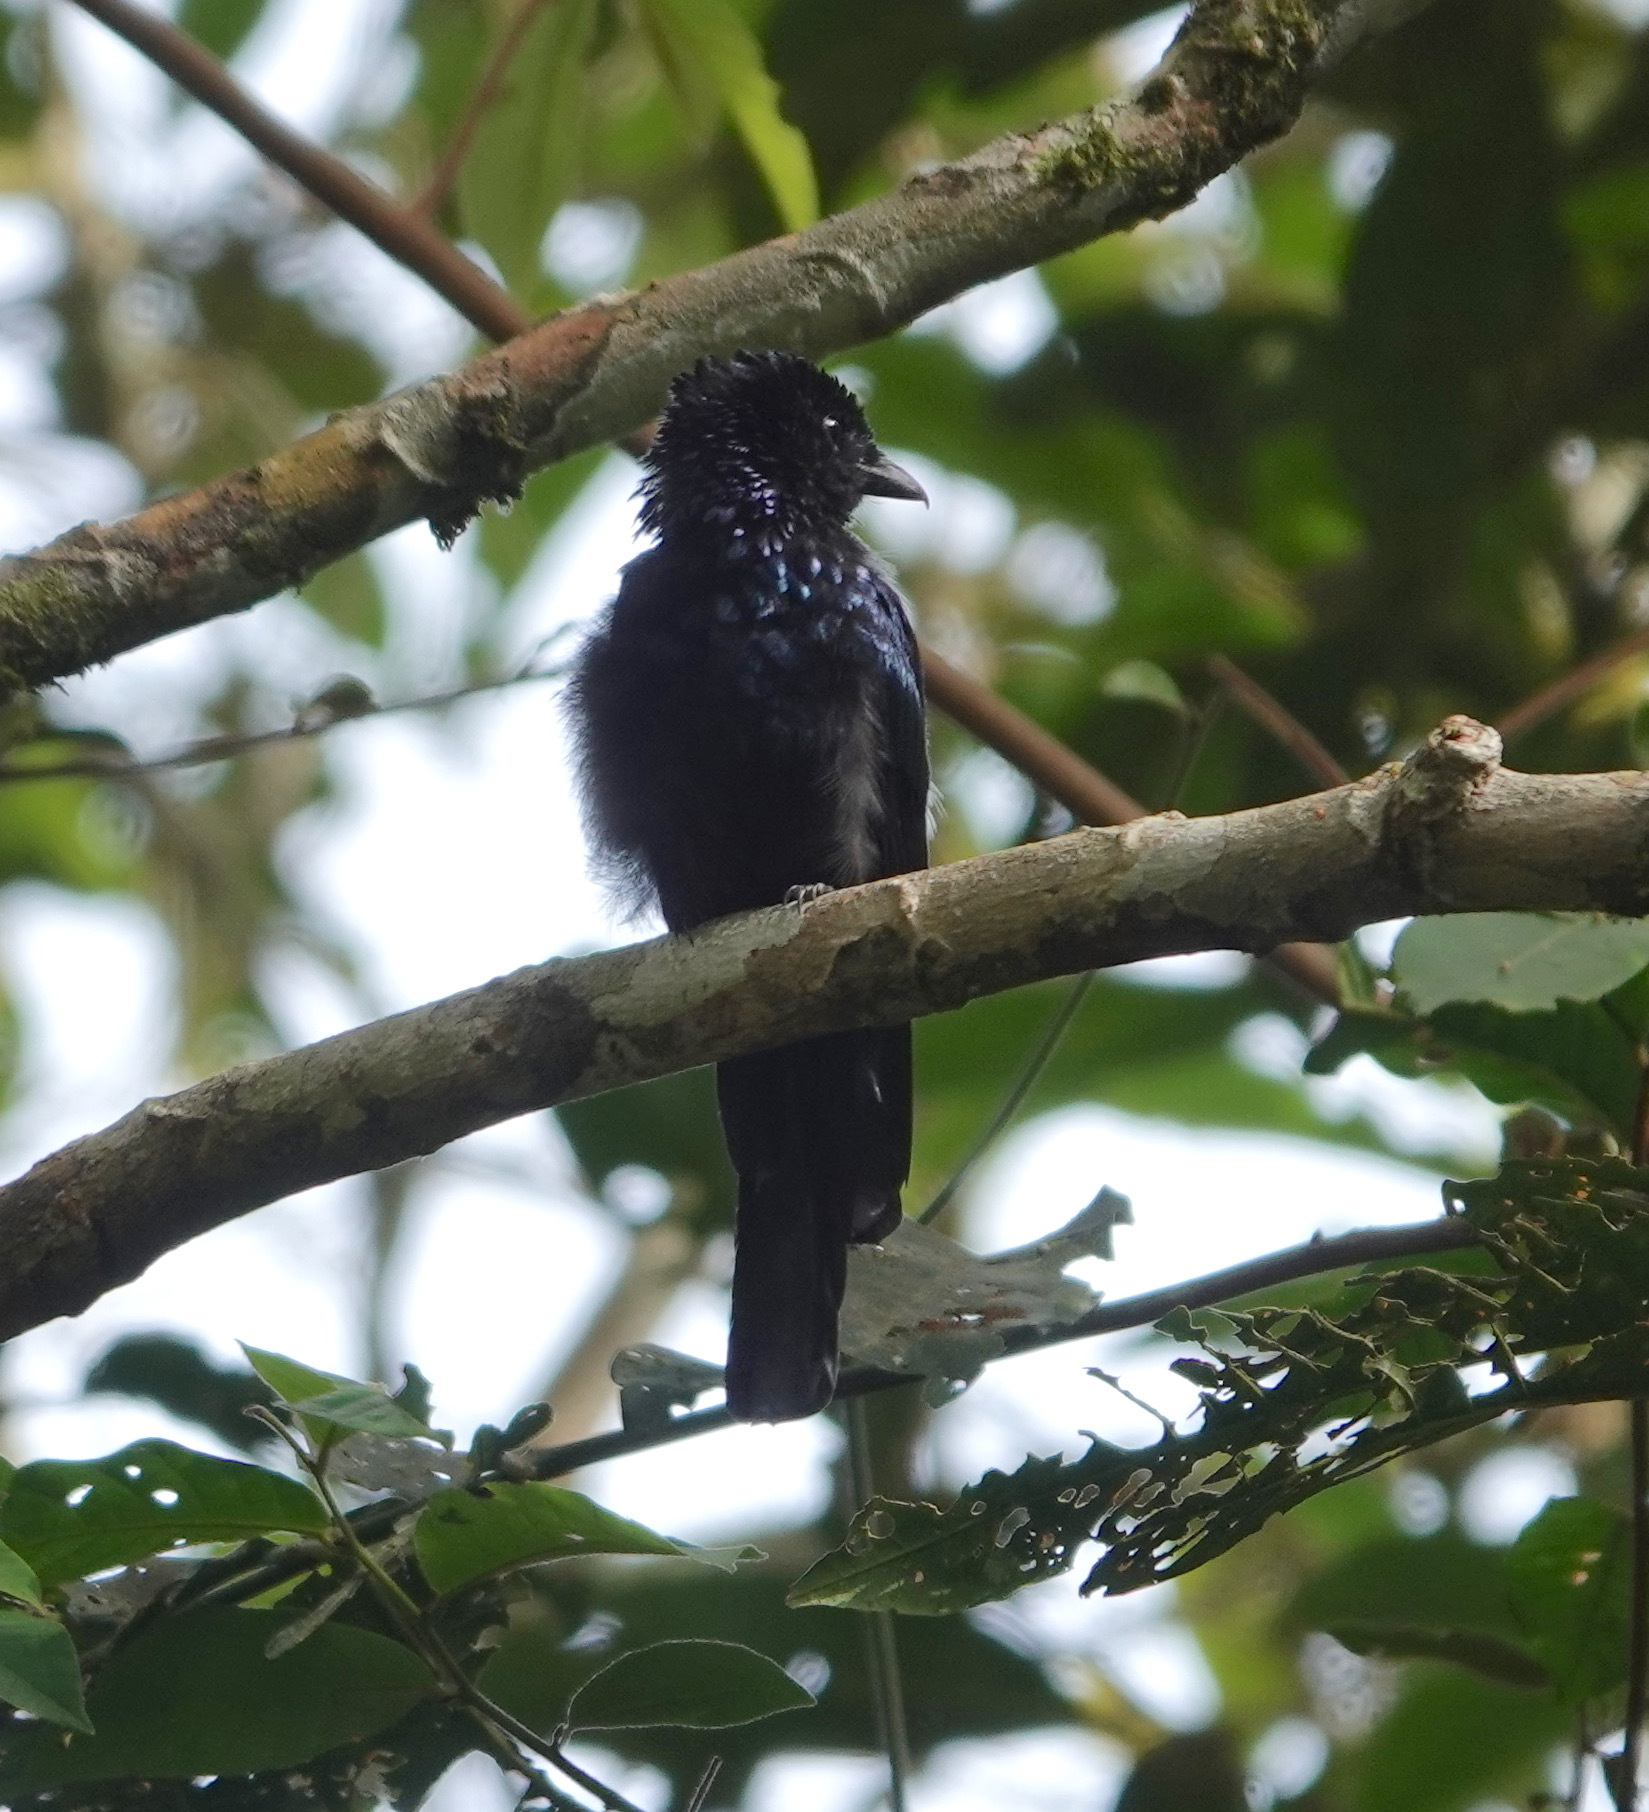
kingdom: Animalia
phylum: Chordata
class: Aves
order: Passeriformes
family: Dicruridae
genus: Dicrurus
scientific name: Dicrurus remifer
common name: Lesser racket-tailed drongo
